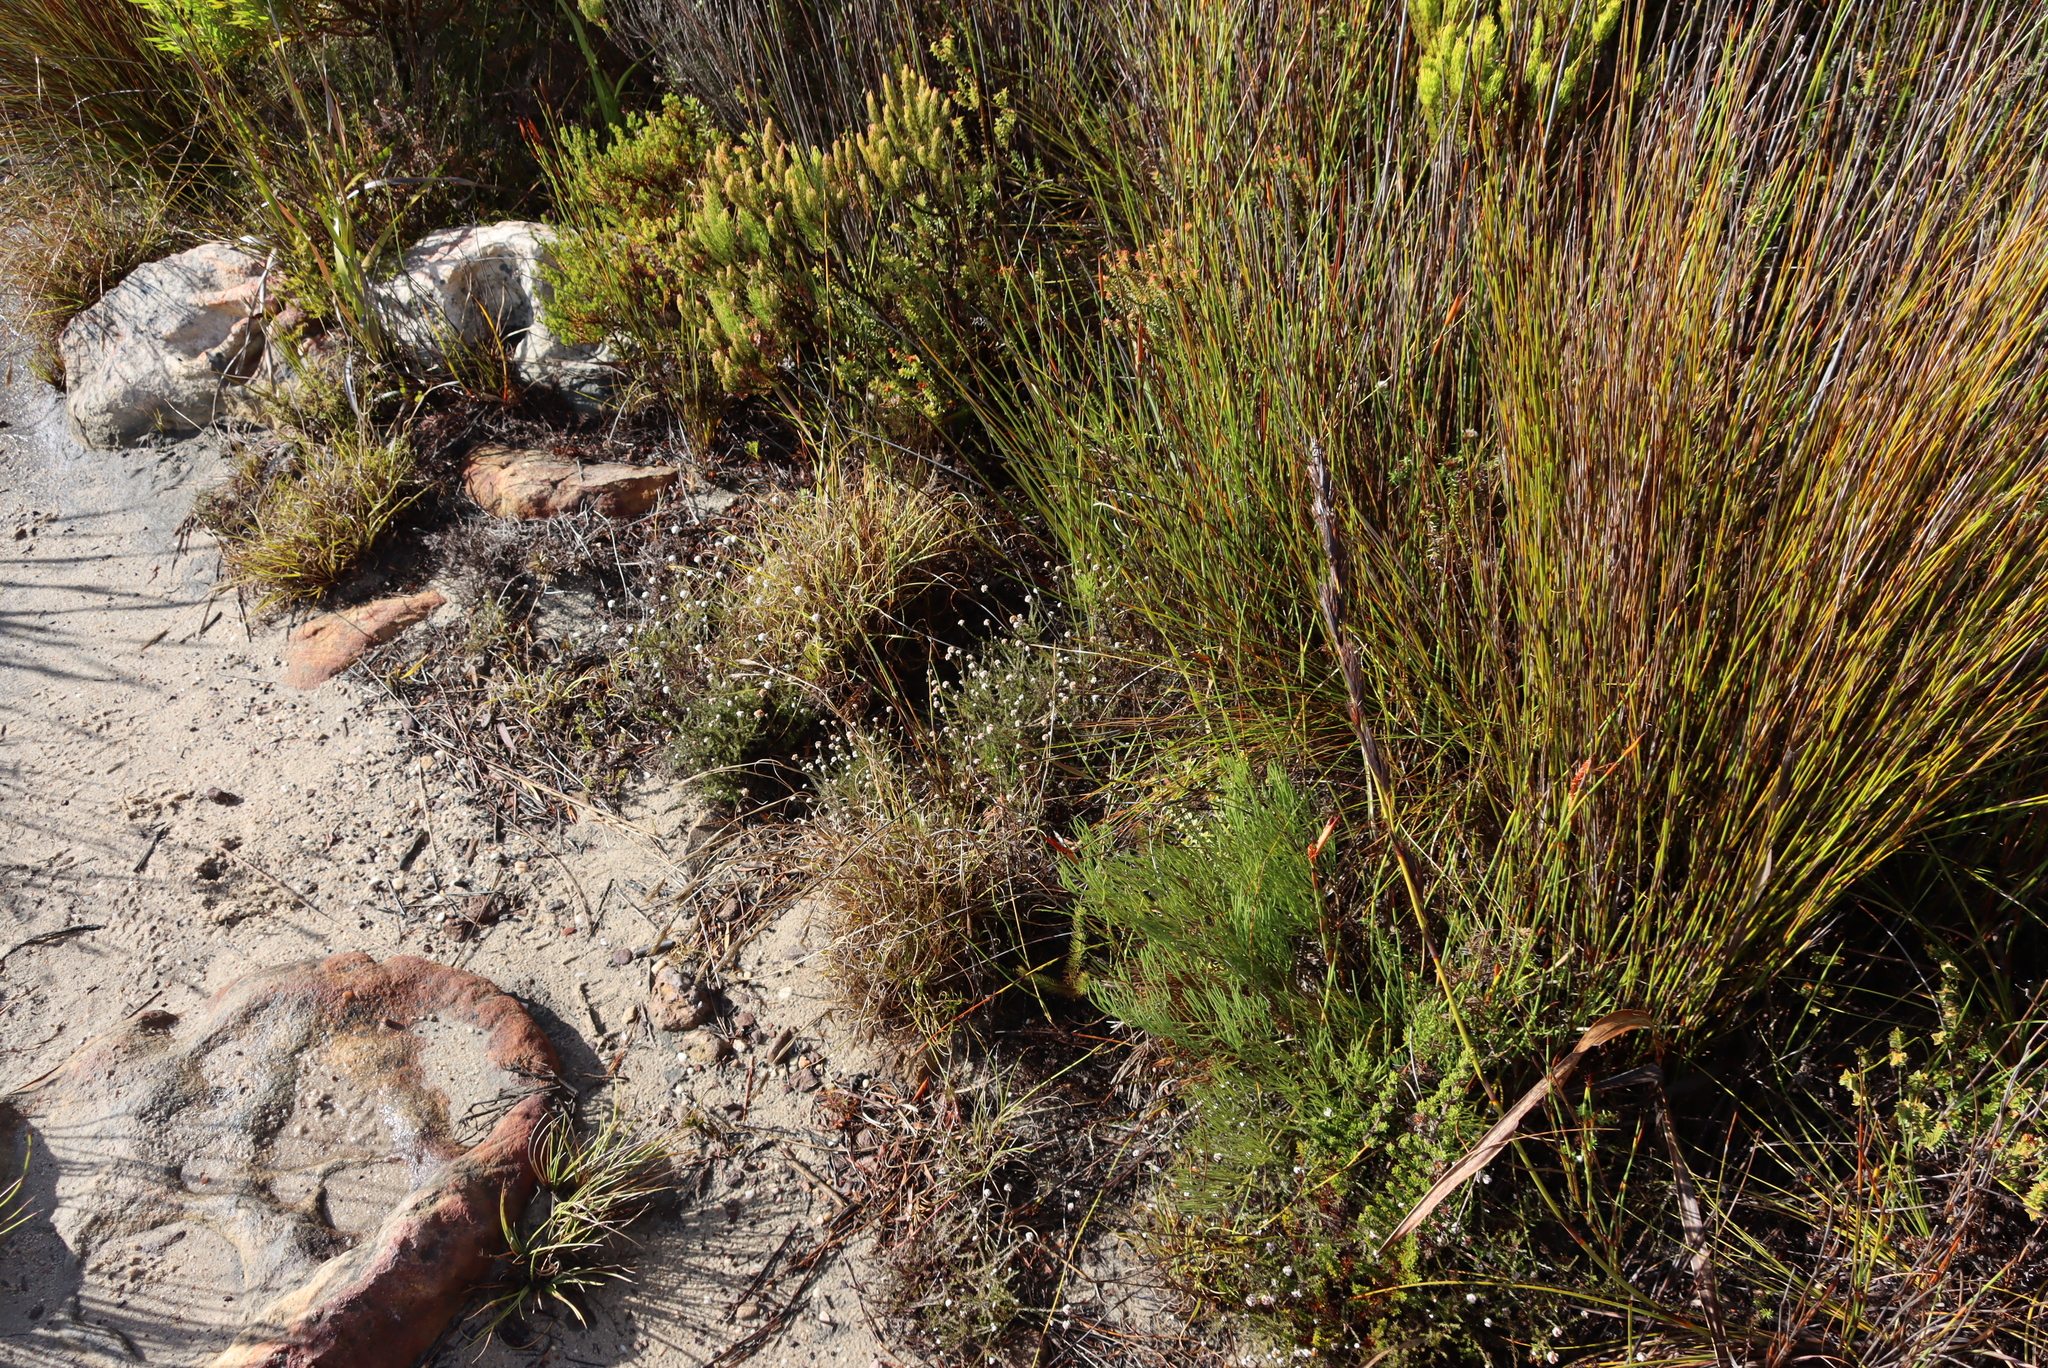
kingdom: Plantae
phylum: Tracheophyta
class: Magnoliopsida
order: Asterales
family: Asteraceae
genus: Stoebe
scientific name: Stoebe capitata
